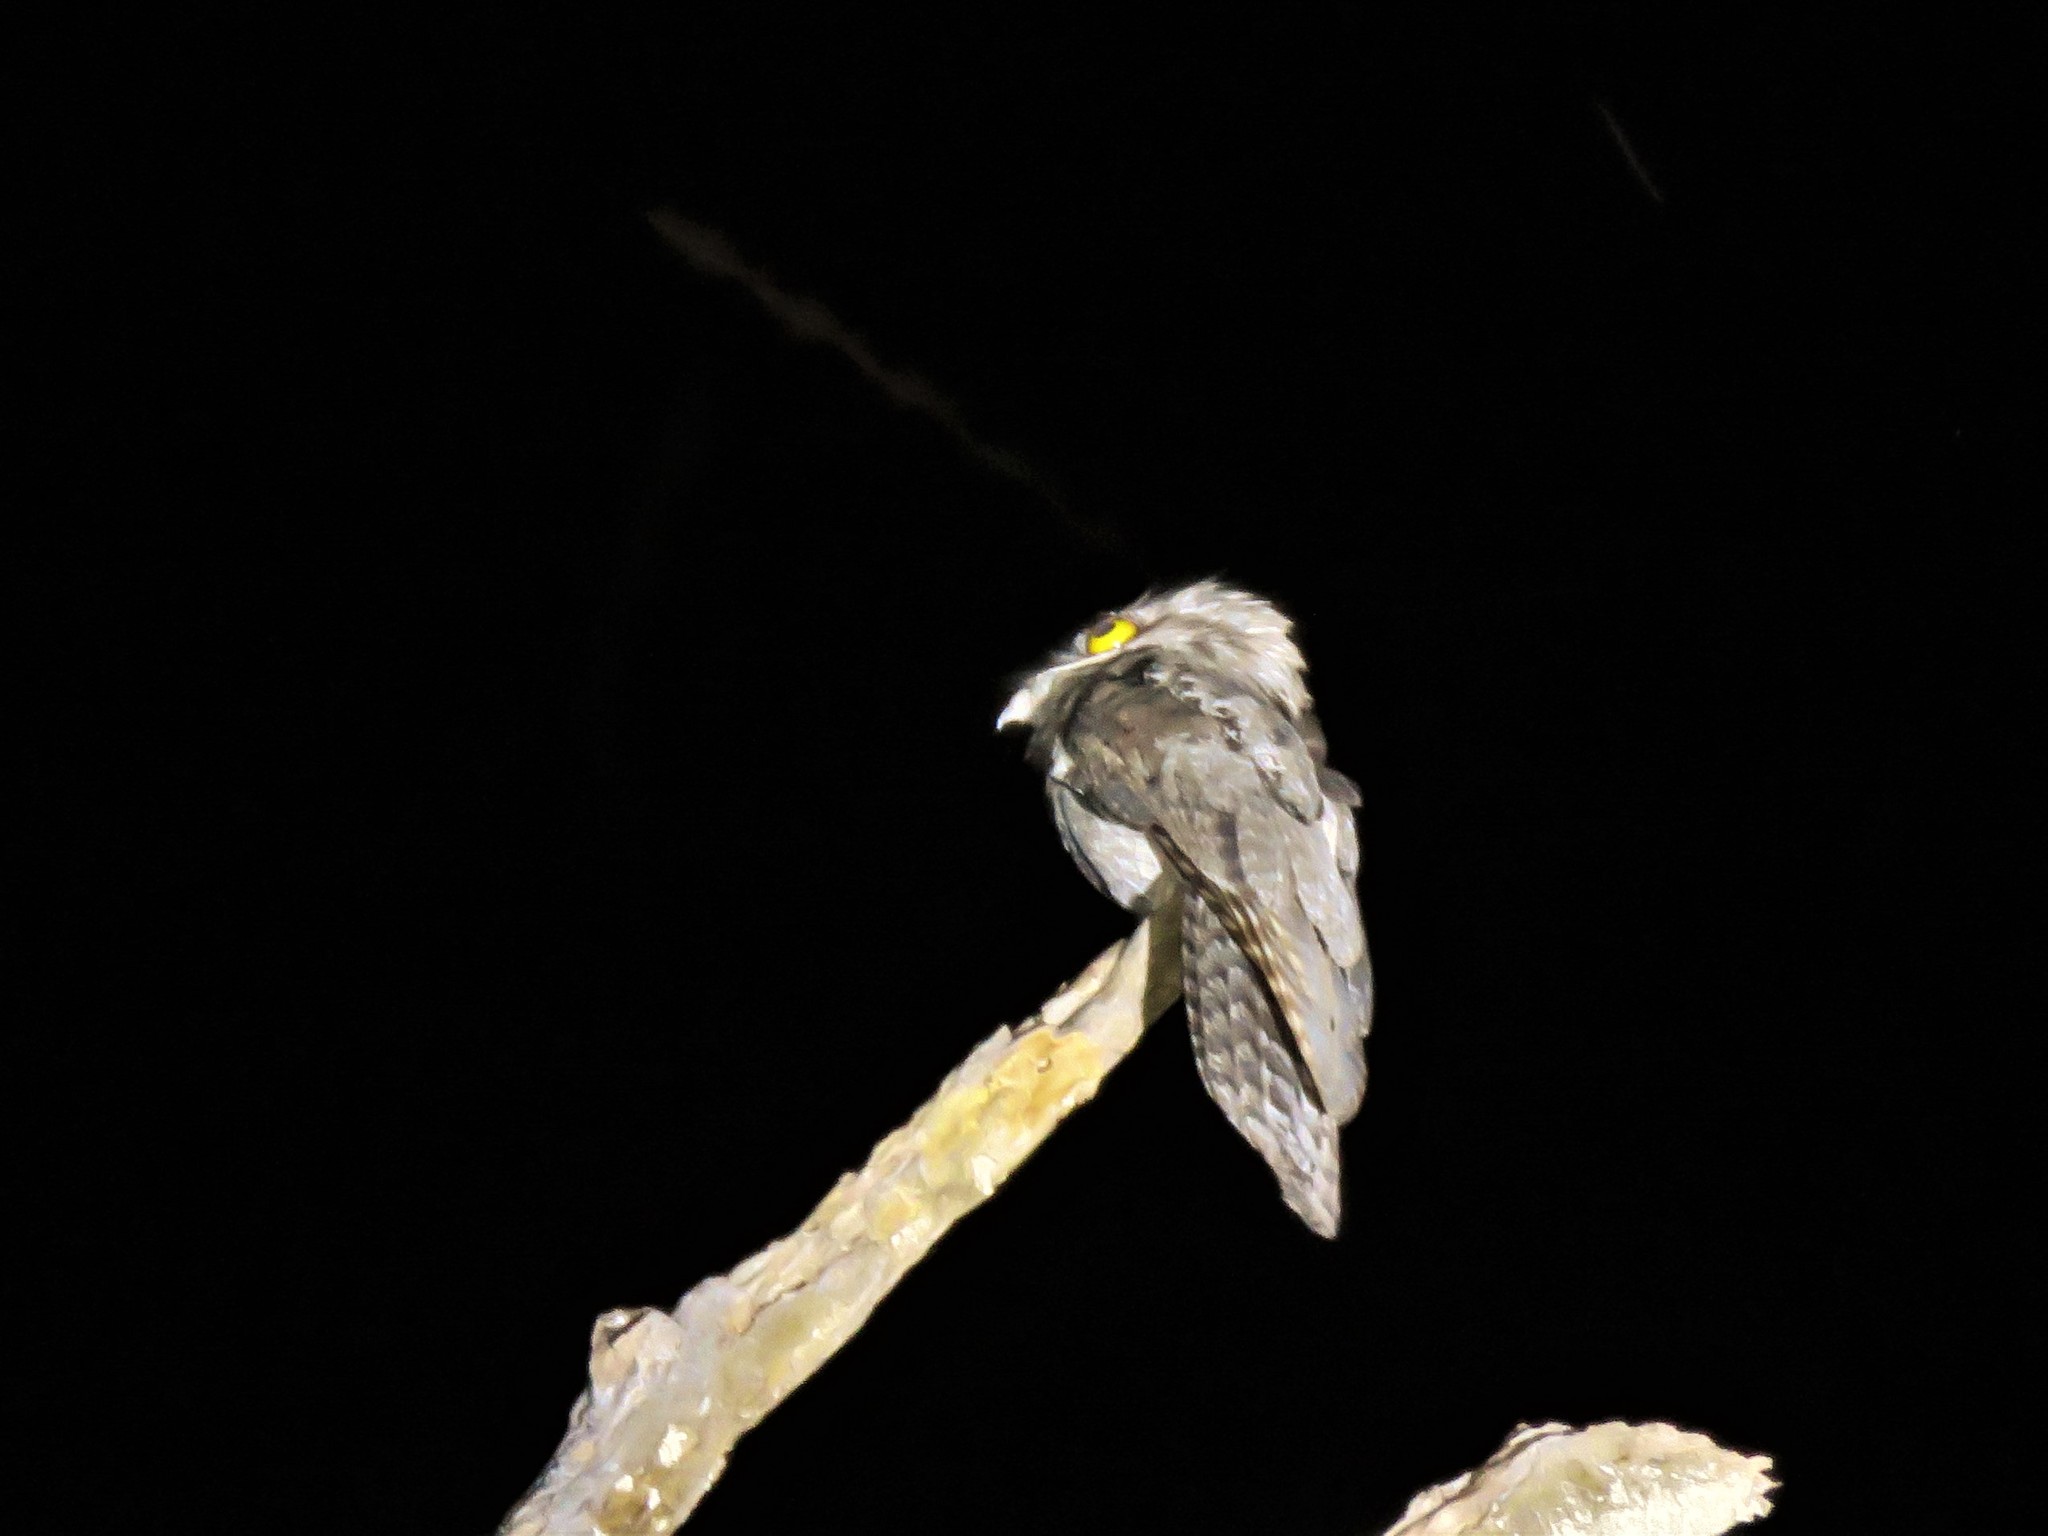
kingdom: Animalia
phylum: Chordata
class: Aves
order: Nyctibiiformes
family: Nyctibiidae
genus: Nyctibius
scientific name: Nyctibius jamaicensis
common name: Northern potoo
